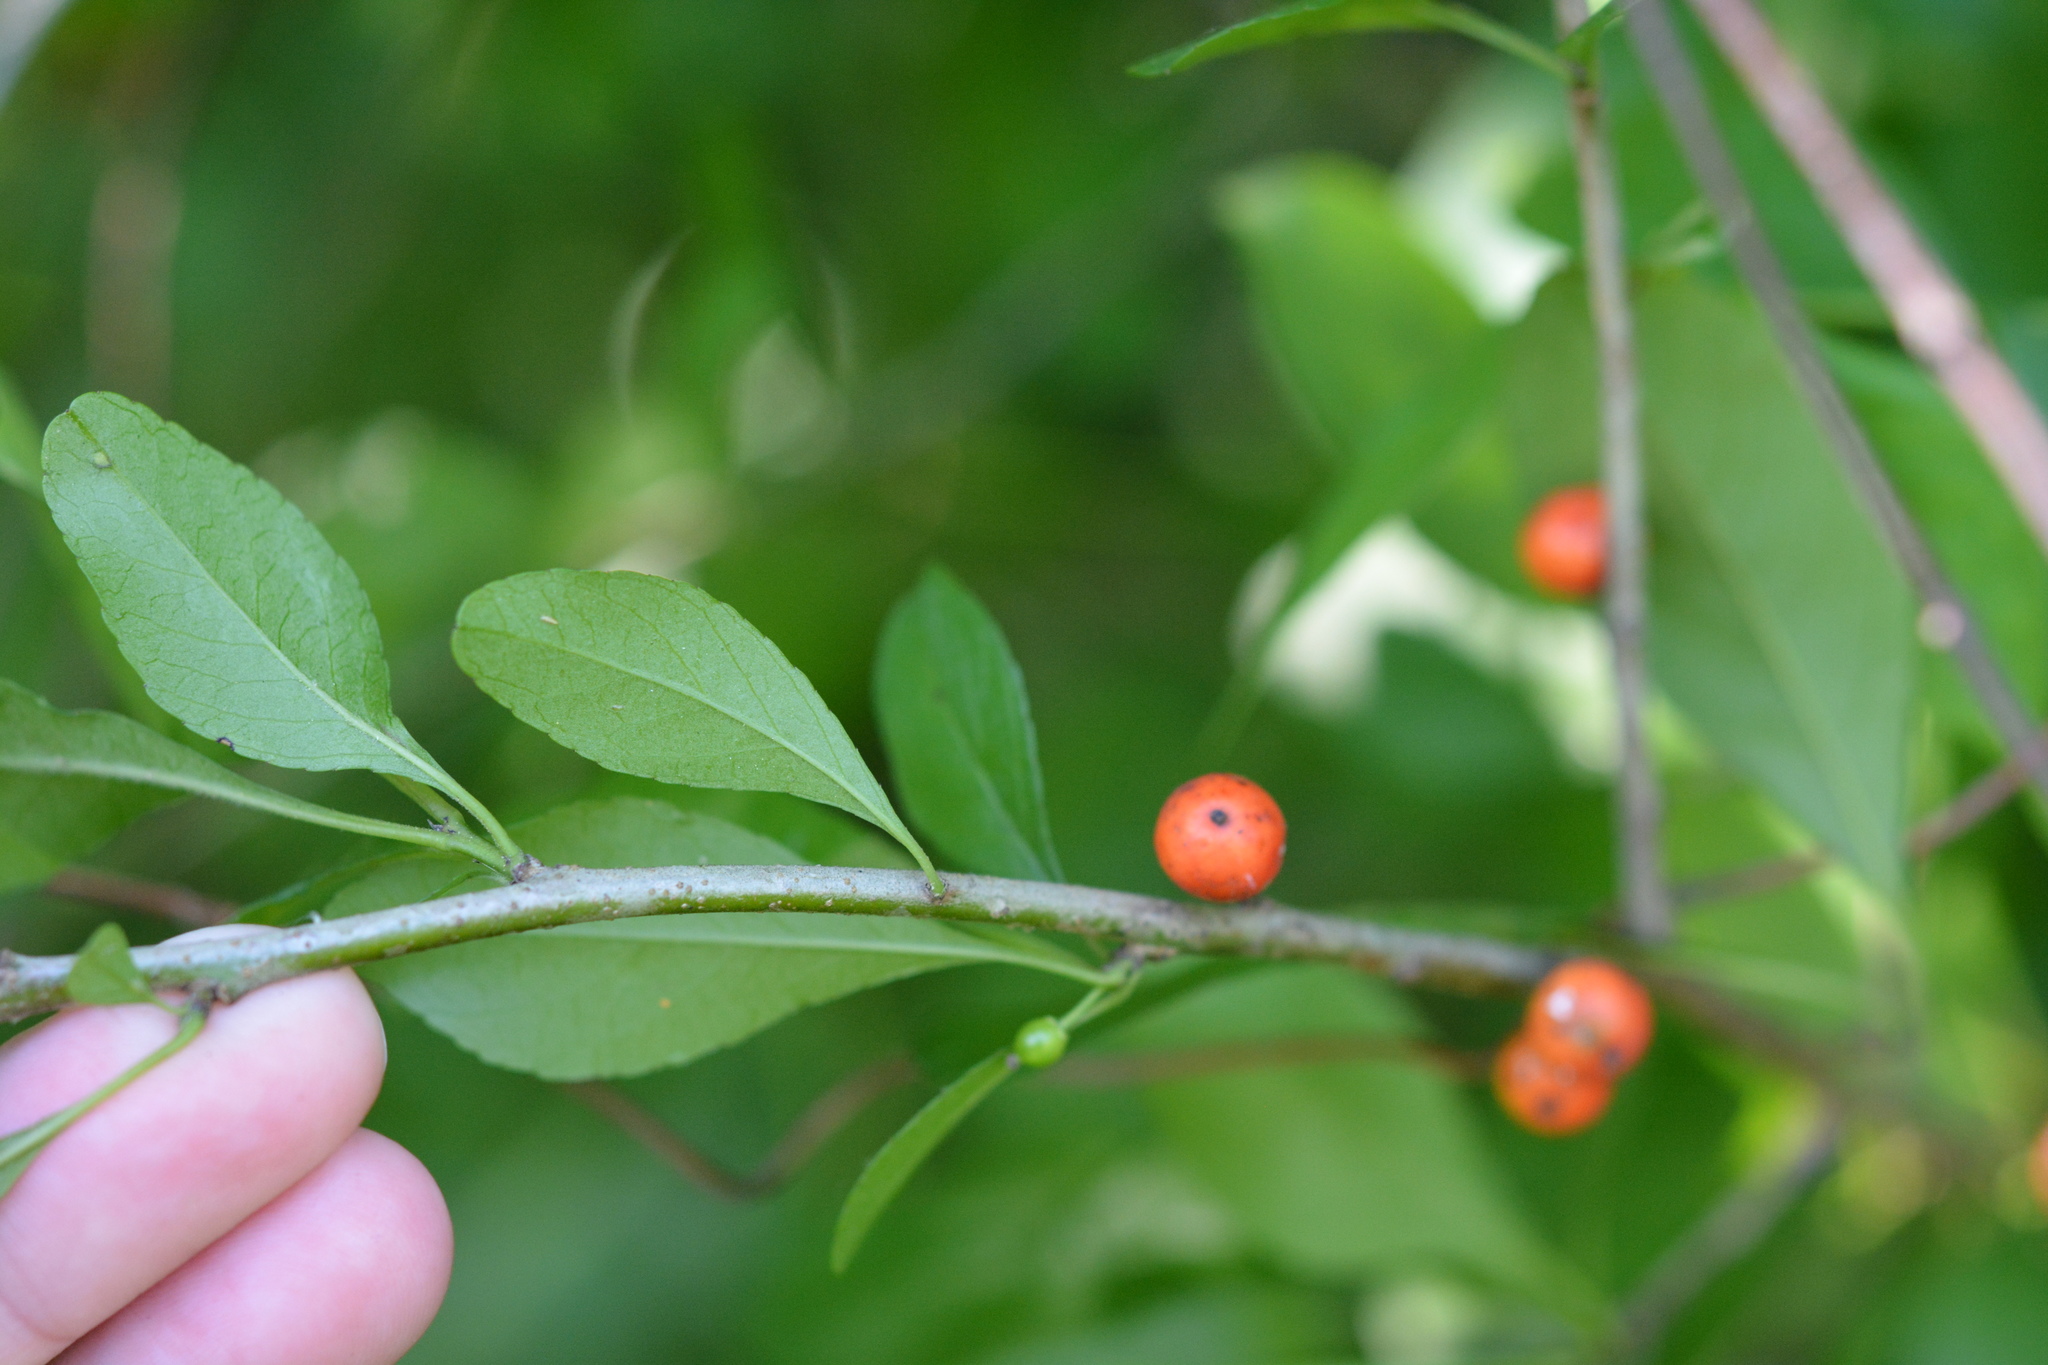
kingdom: Plantae
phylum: Tracheophyta
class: Magnoliopsida
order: Aquifoliales
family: Aquifoliaceae
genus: Ilex
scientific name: Ilex decidua
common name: Possum-haw
